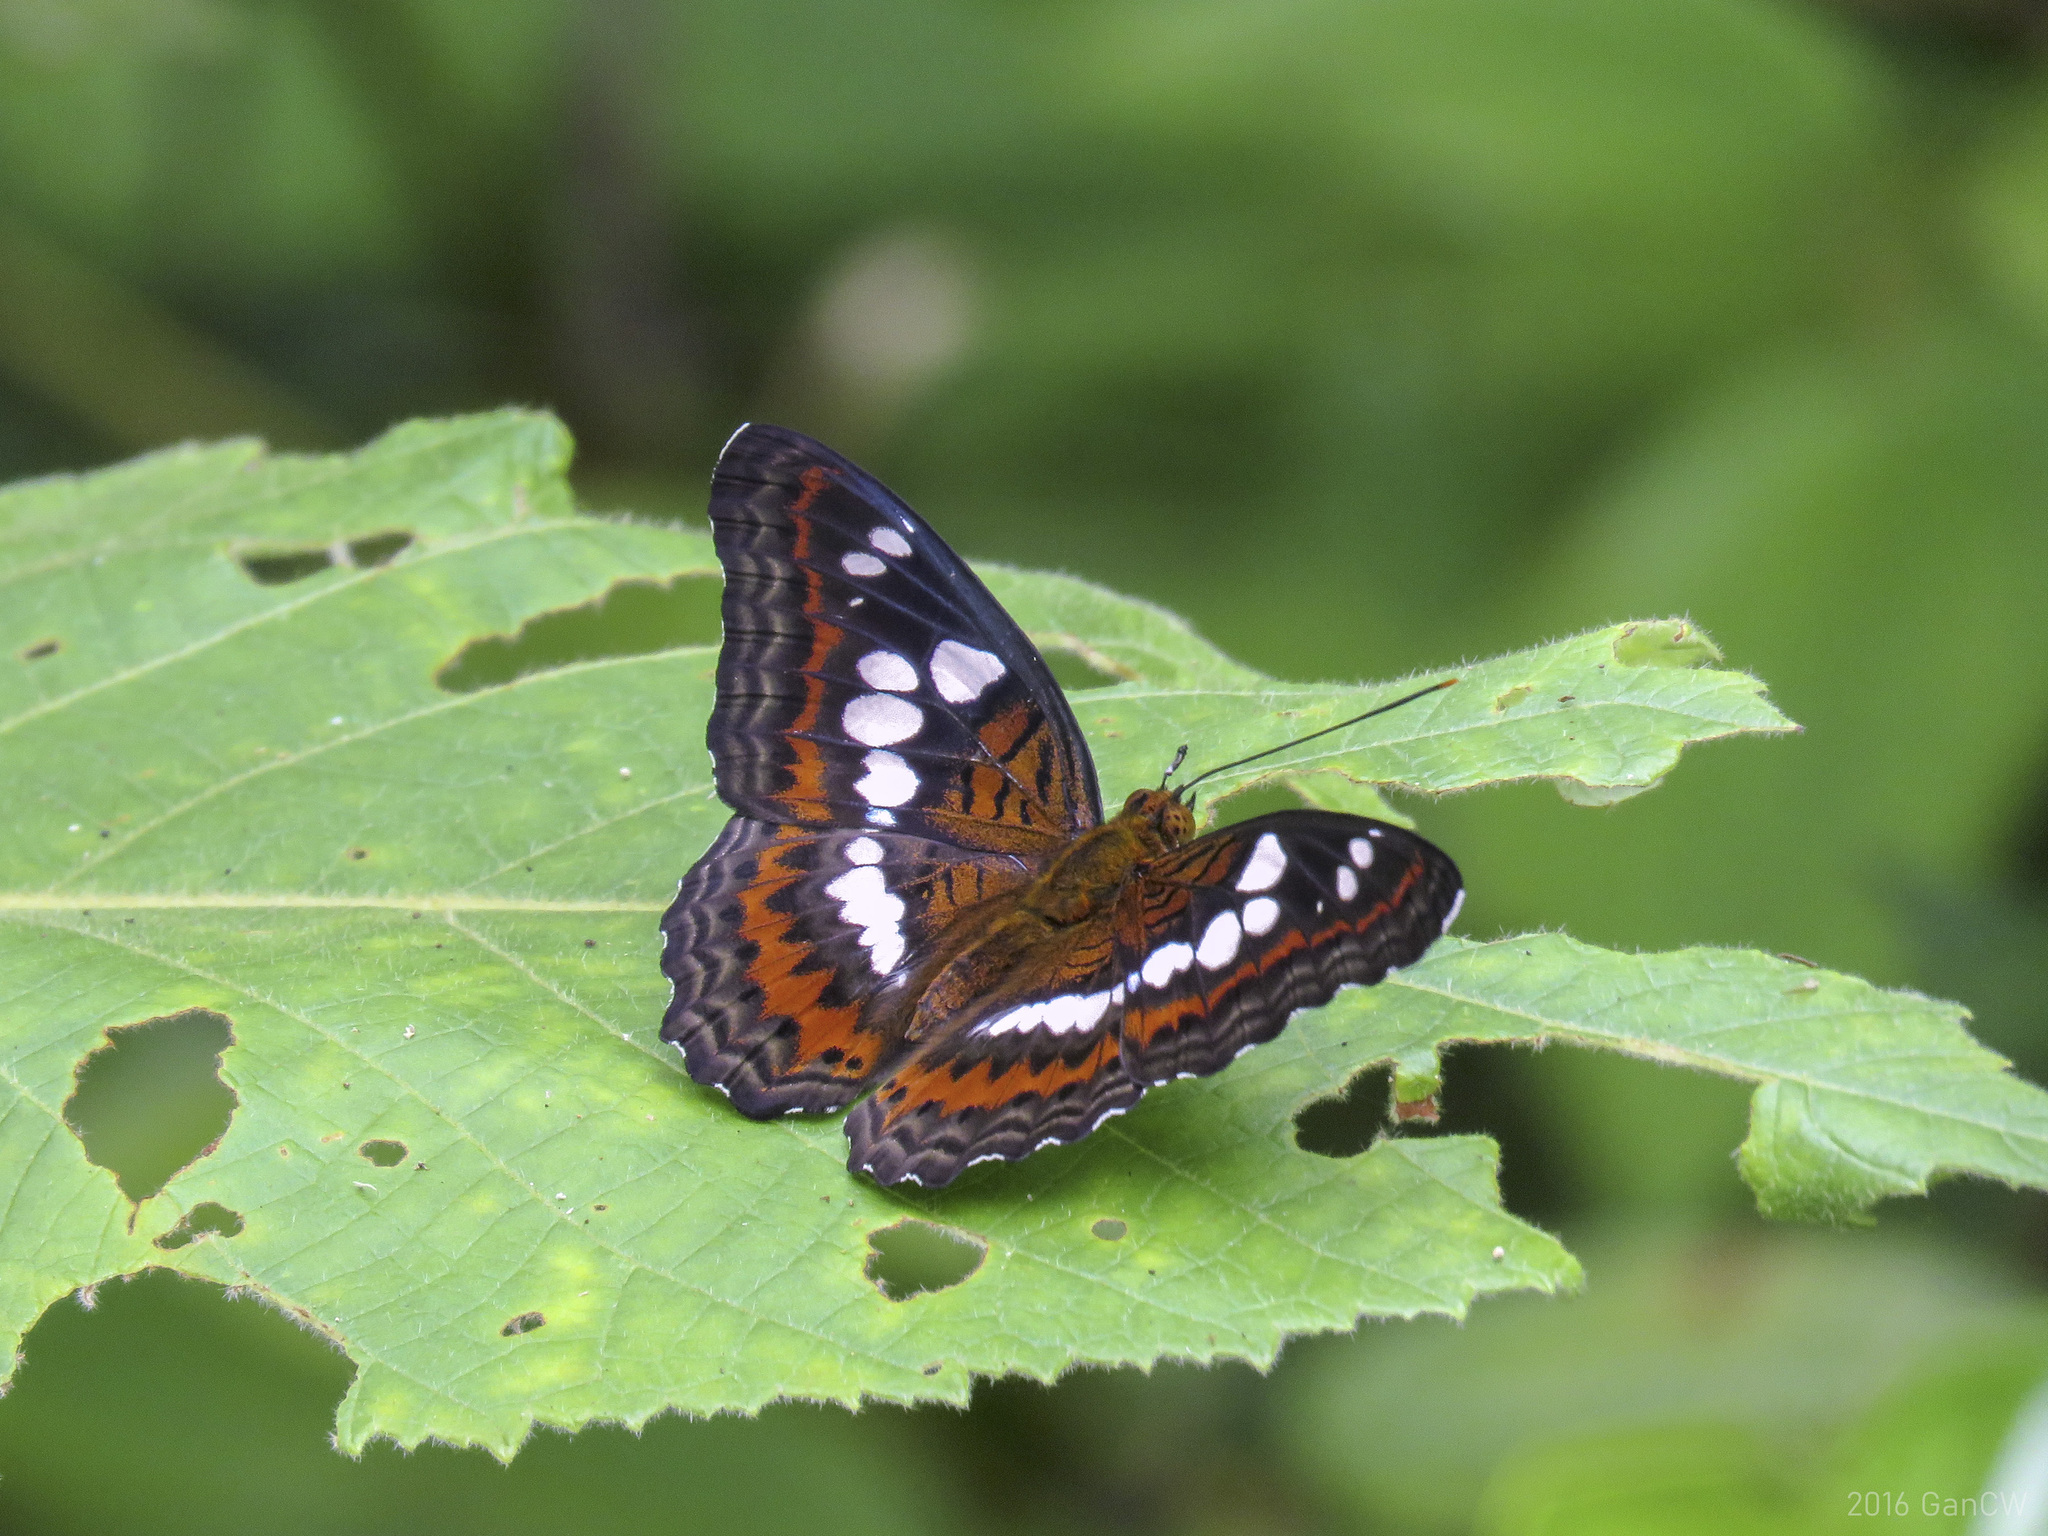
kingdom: Animalia
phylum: Arthropoda
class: Insecta
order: Lepidoptera
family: Nymphalidae
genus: Limenitis
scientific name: Limenitis Moduza procris
